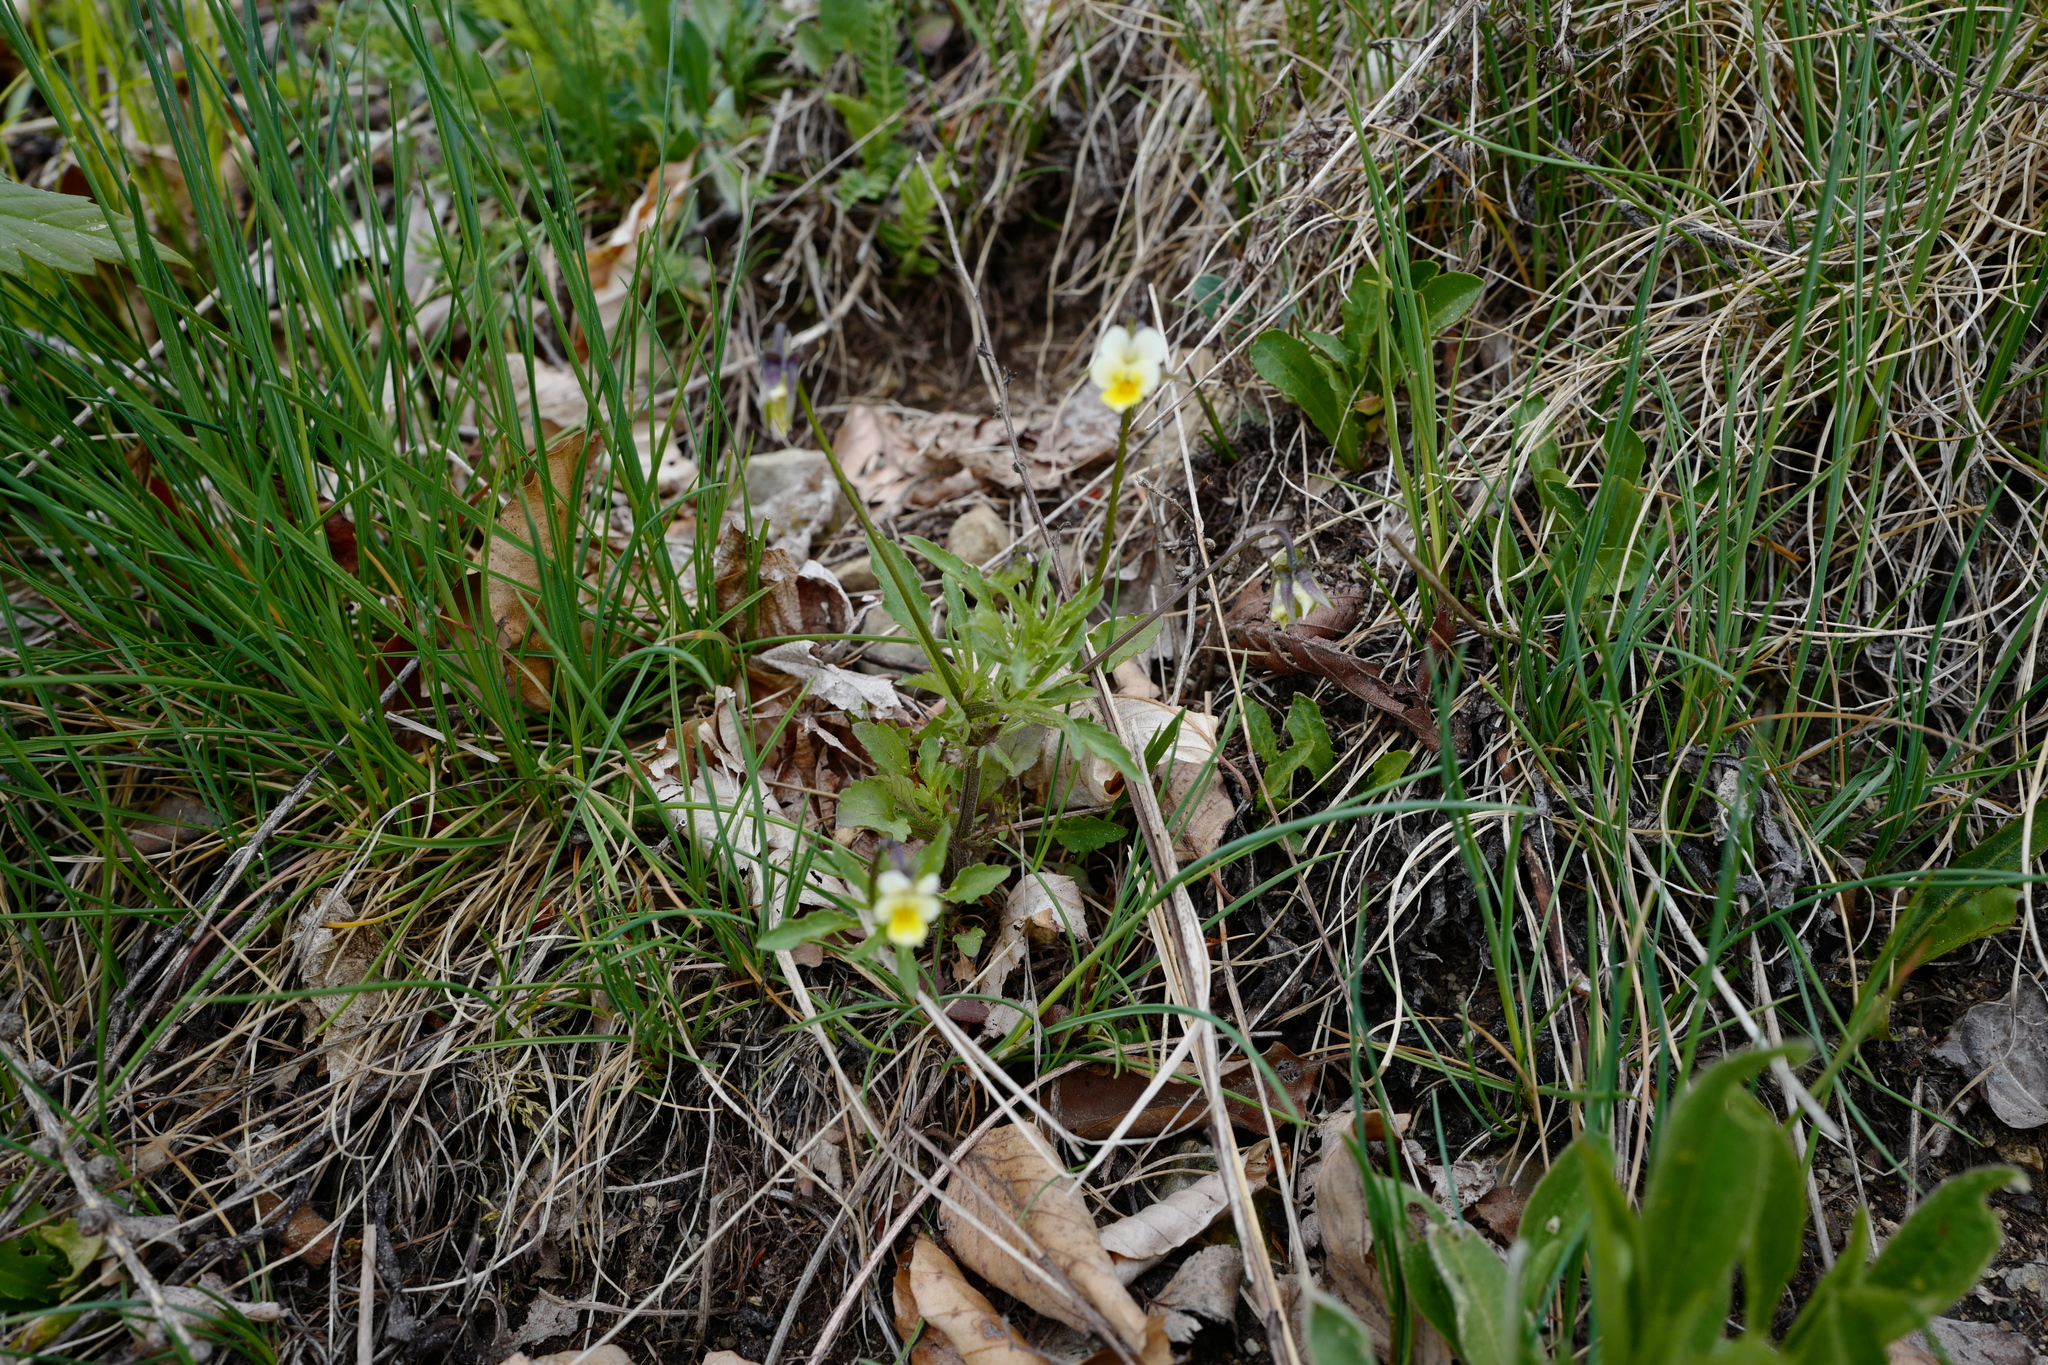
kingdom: Plantae
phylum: Tracheophyta
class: Magnoliopsida
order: Malpighiales
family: Violaceae
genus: Viola
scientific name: Viola arvensis
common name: Field pansy
